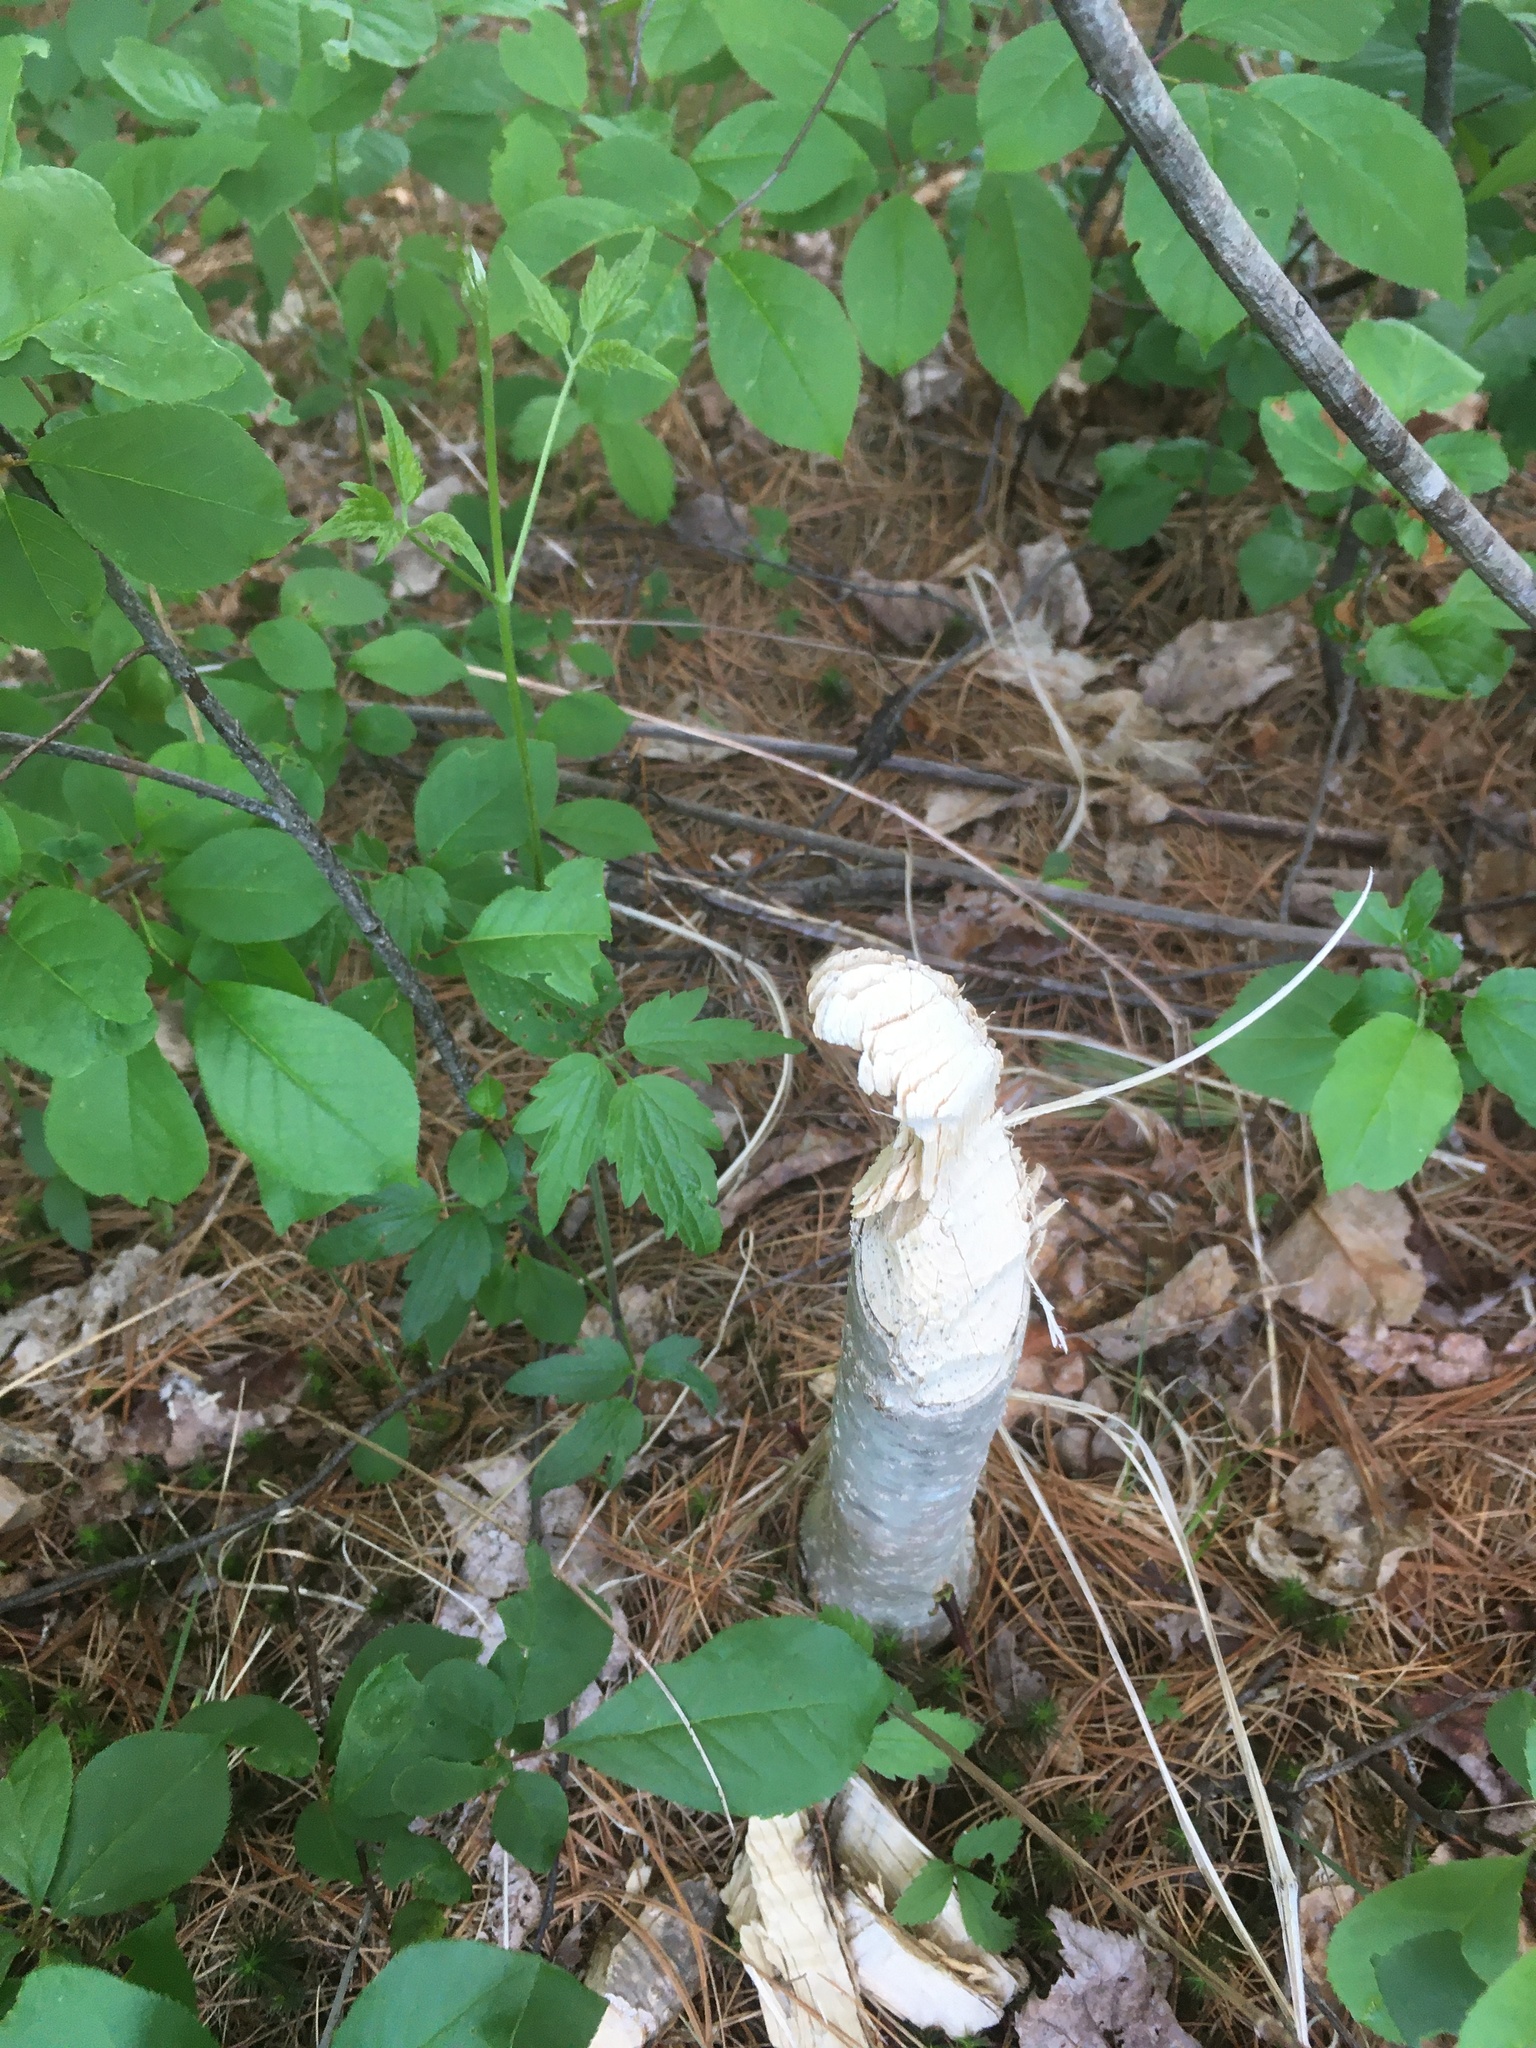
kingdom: Animalia
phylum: Chordata
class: Mammalia
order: Rodentia
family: Castoridae
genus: Castor
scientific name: Castor canadensis
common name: American beaver
